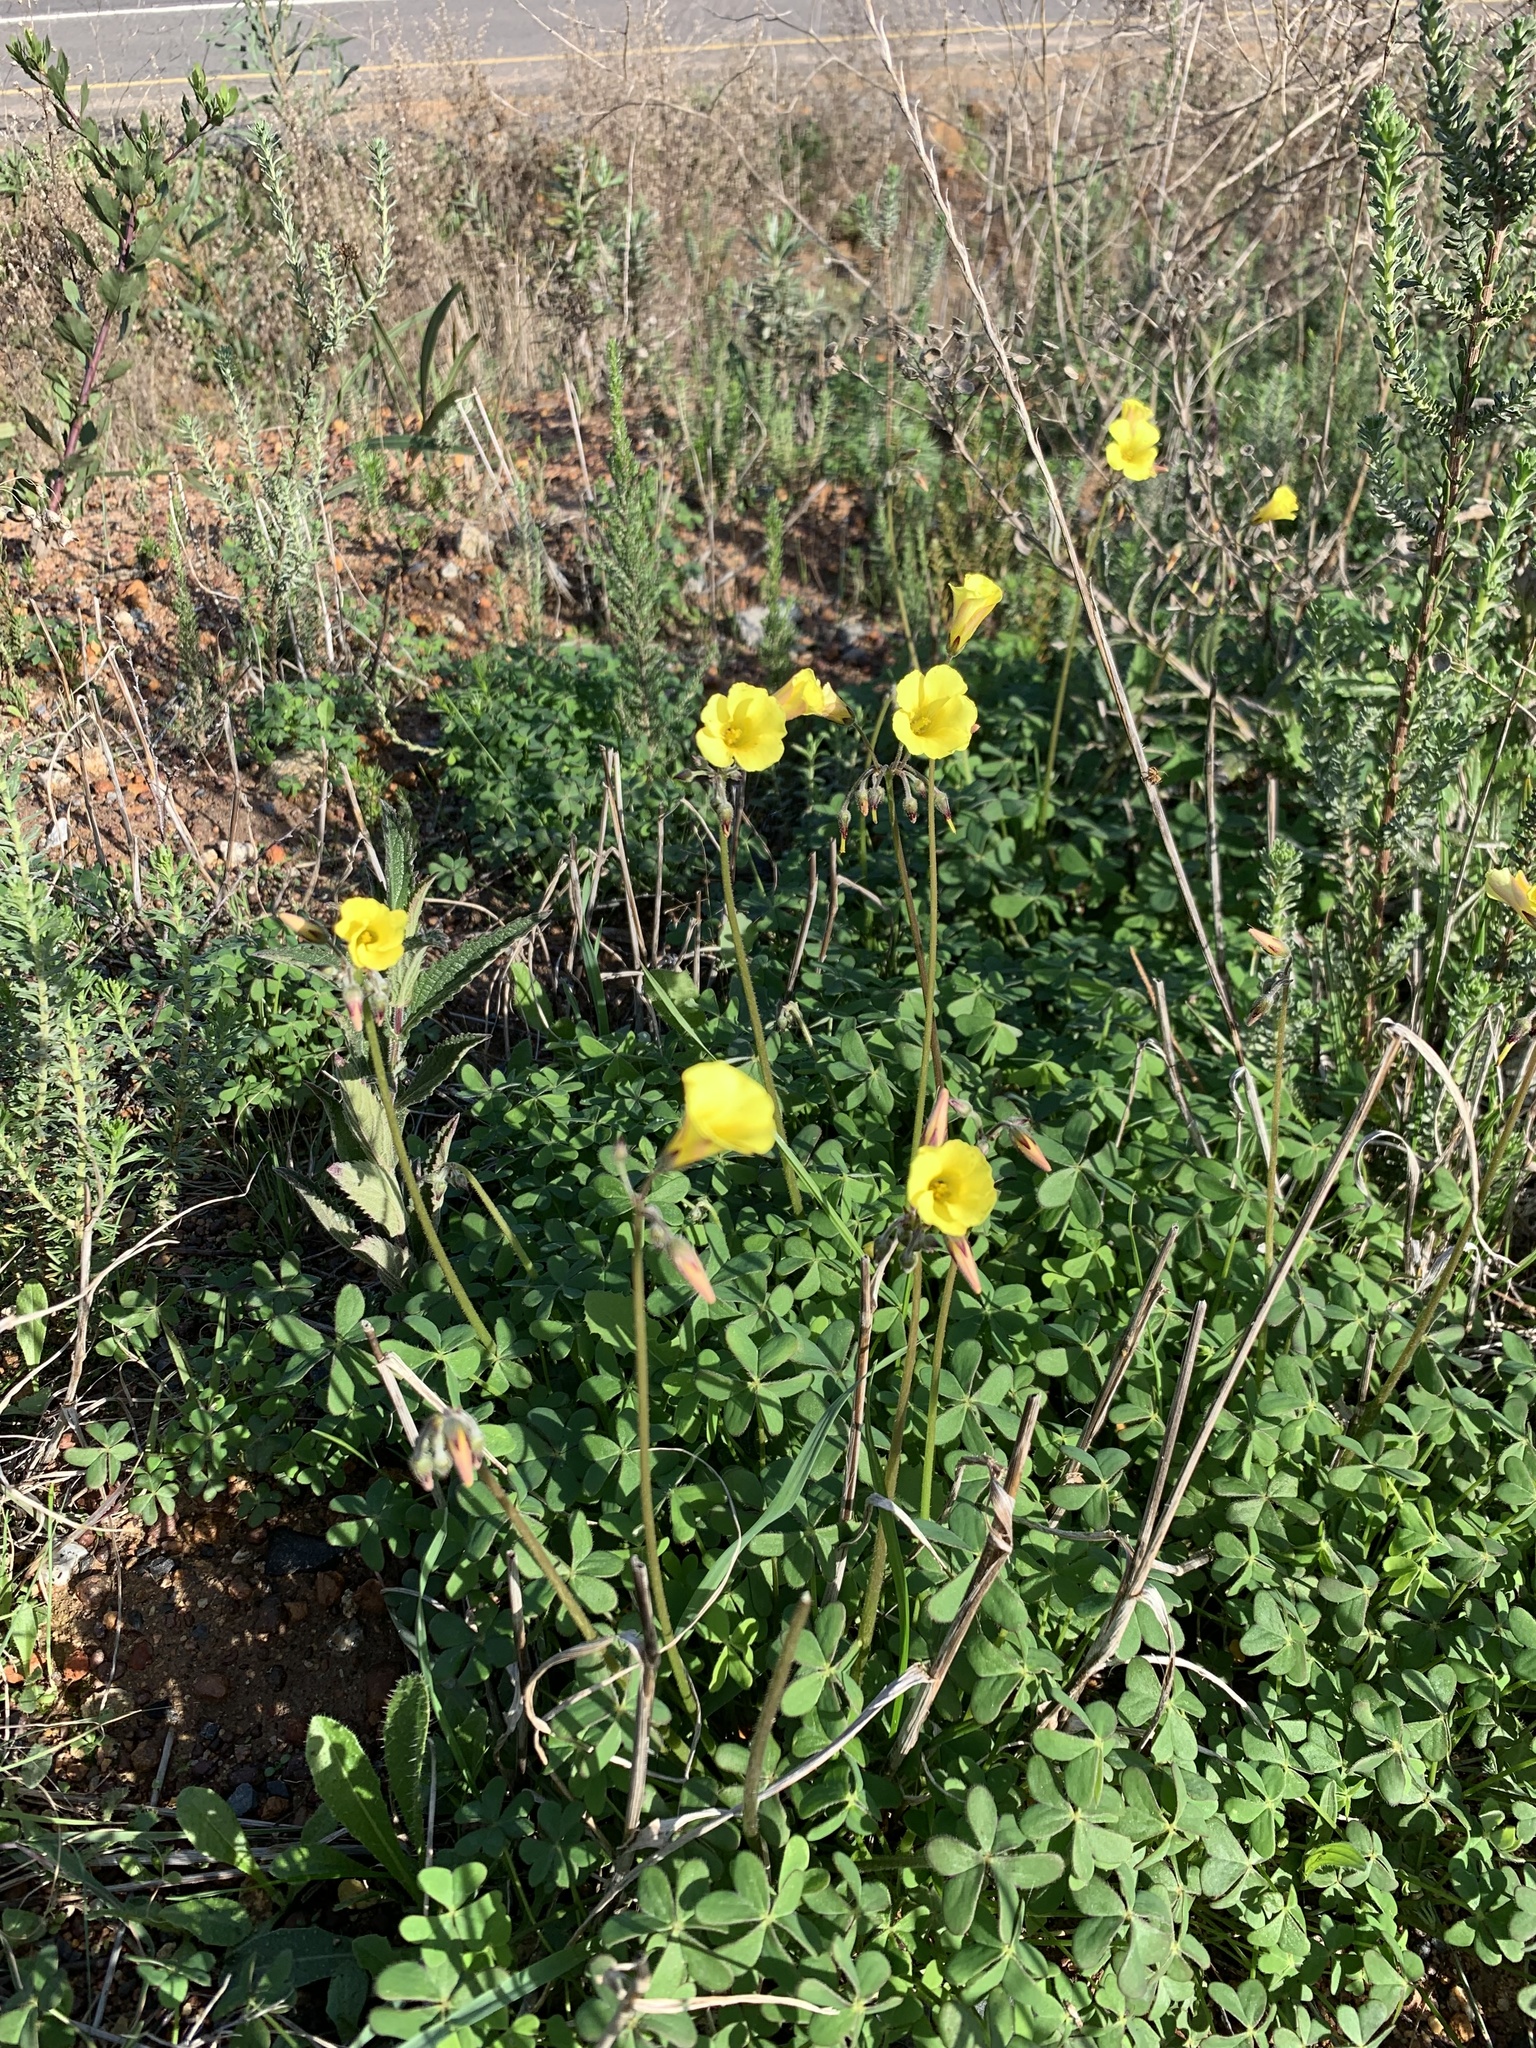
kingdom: Plantae
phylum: Tracheophyta
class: Magnoliopsida
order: Oxalidales
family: Oxalidaceae
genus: Oxalis
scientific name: Oxalis pes-caprae
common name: Bermuda-buttercup
